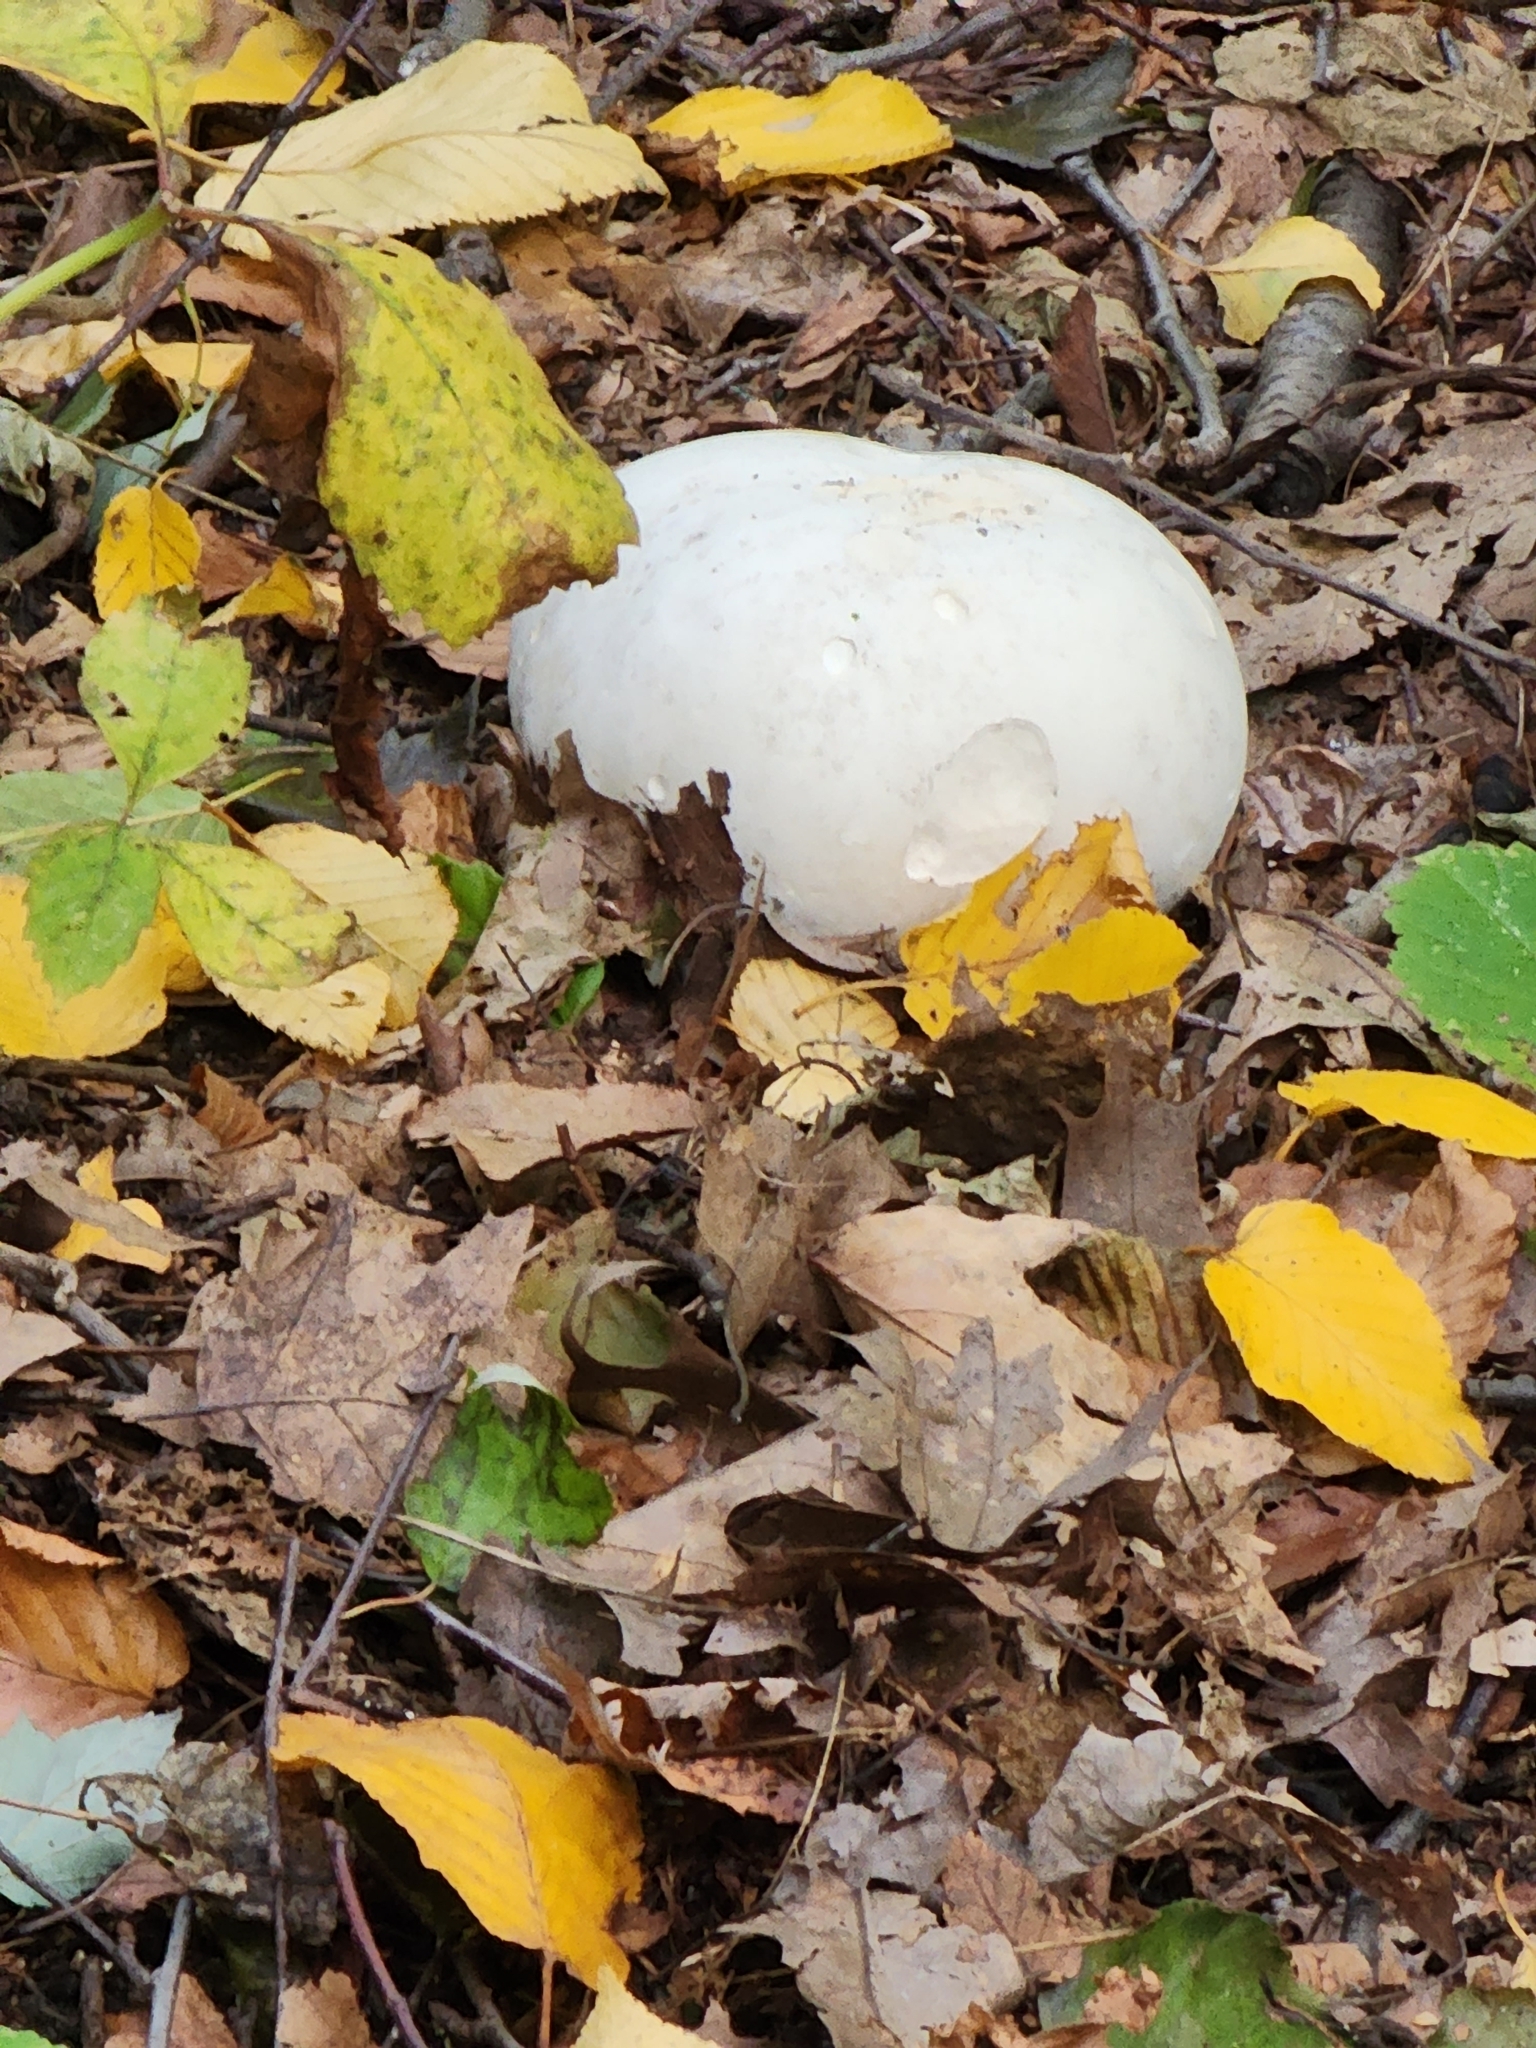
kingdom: Fungi
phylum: Basidiomycota
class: Agaricomycetes
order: Agaricales
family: Lycoperdaceae
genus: Calvatia
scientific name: Calvatia gigantea
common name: Giant puffball
